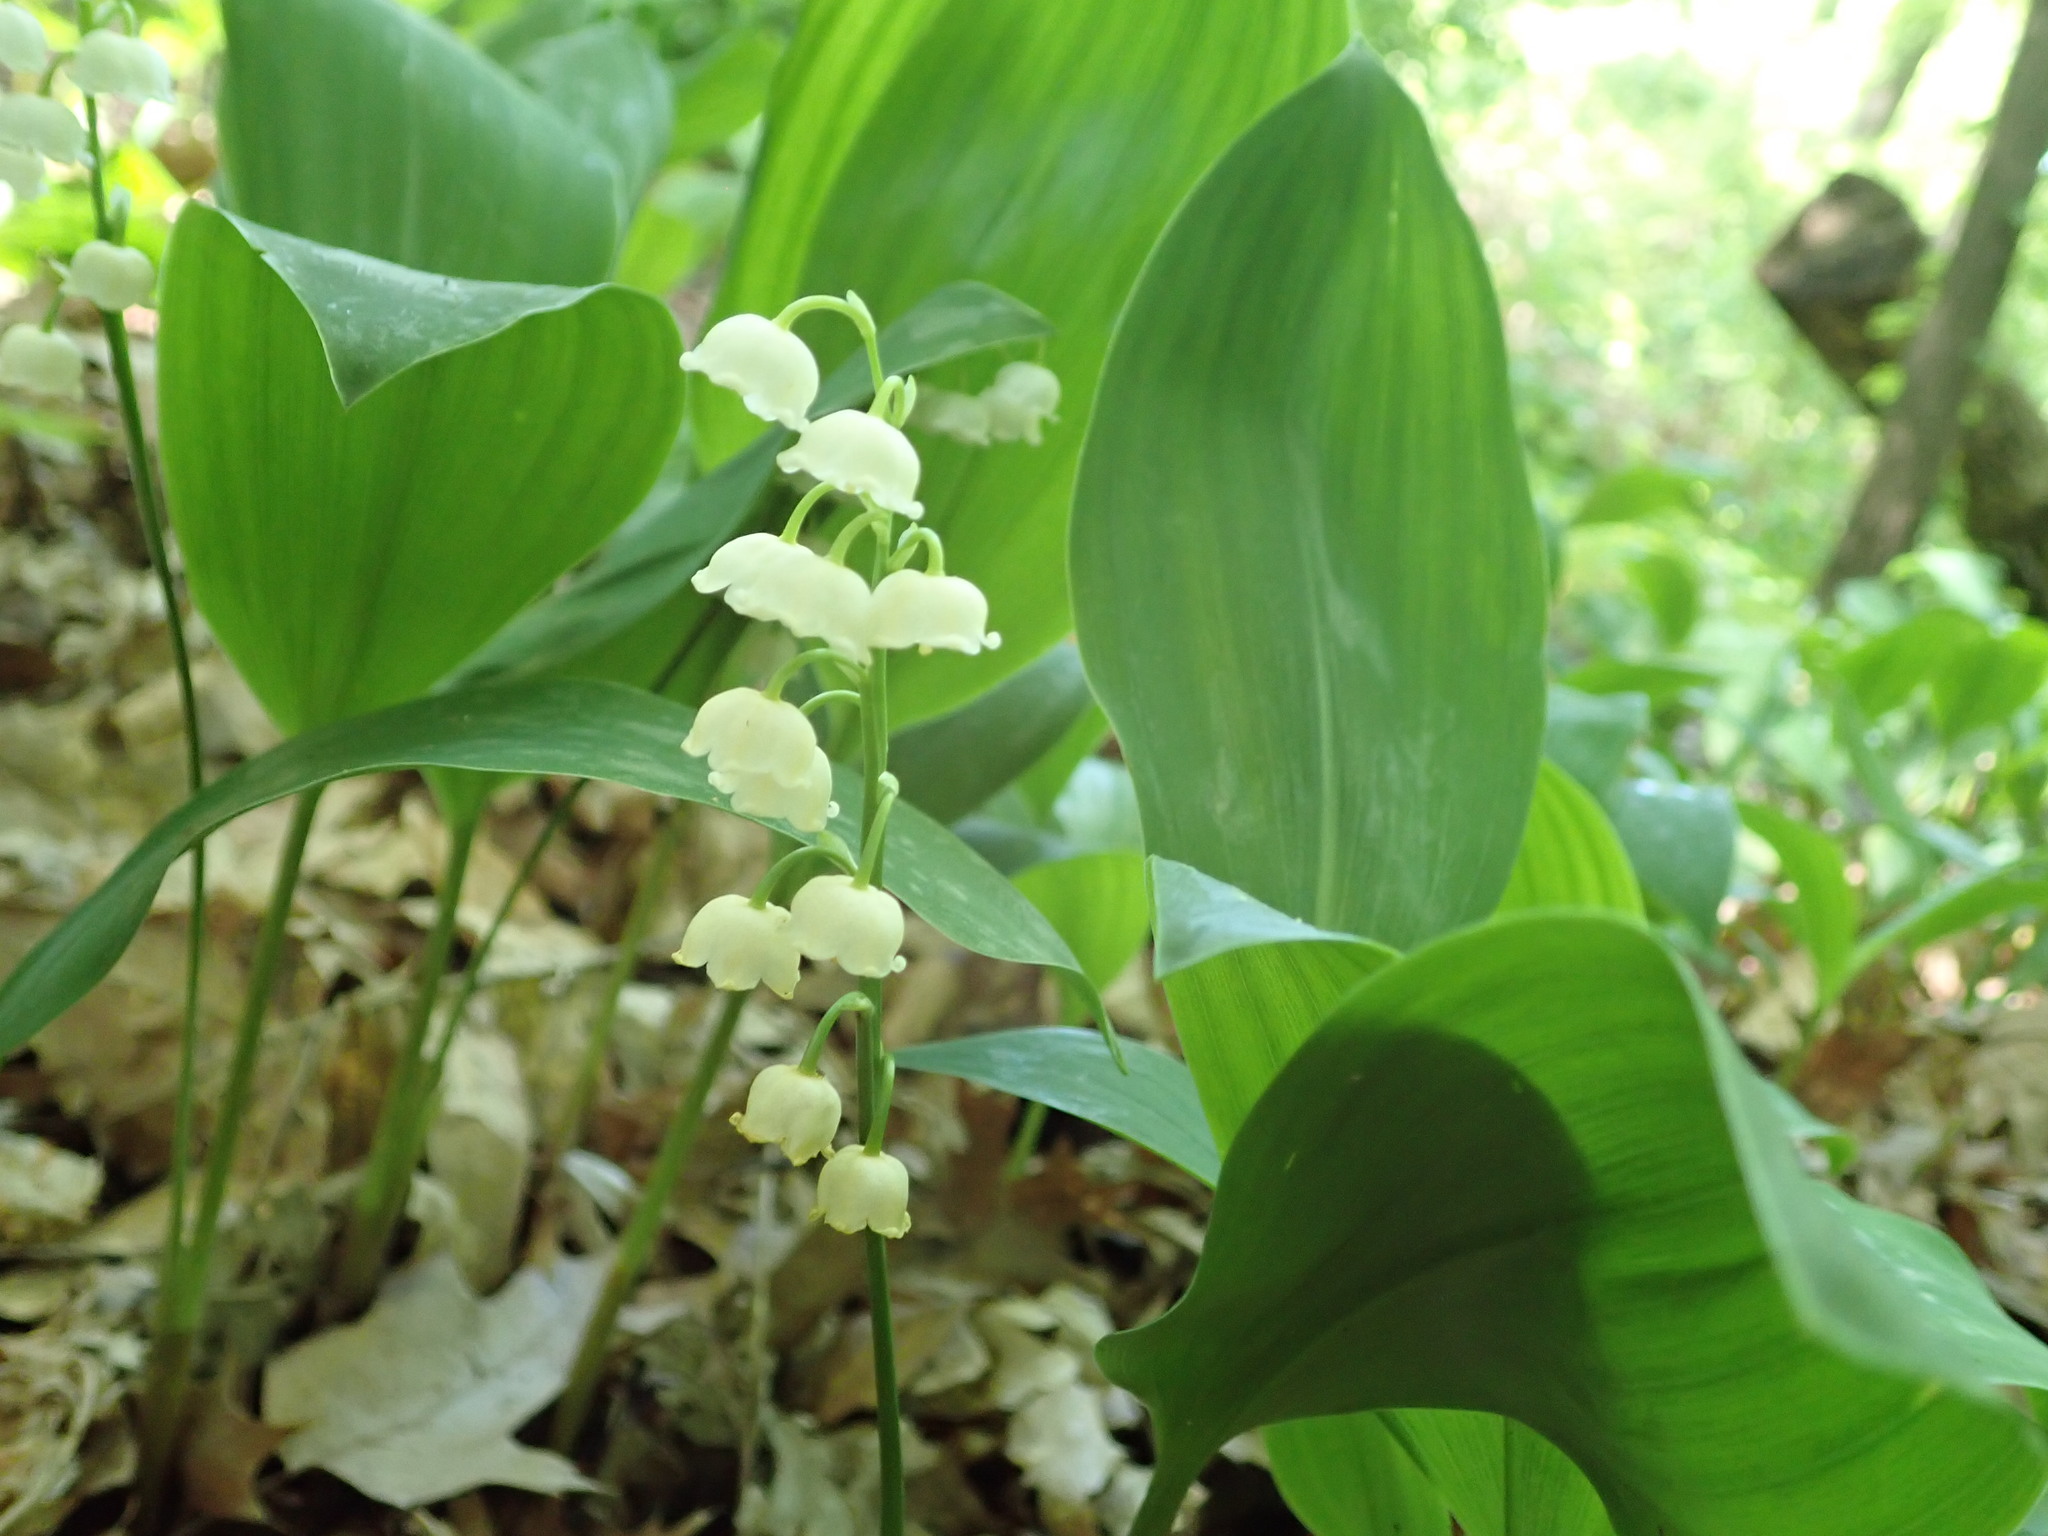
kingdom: Plantae
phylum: Tracheophyta
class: Liliopsida
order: Asparagales
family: Asparagaceae
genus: Convallaria
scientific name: Convallaria majalis
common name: Lily-of-the-valley
